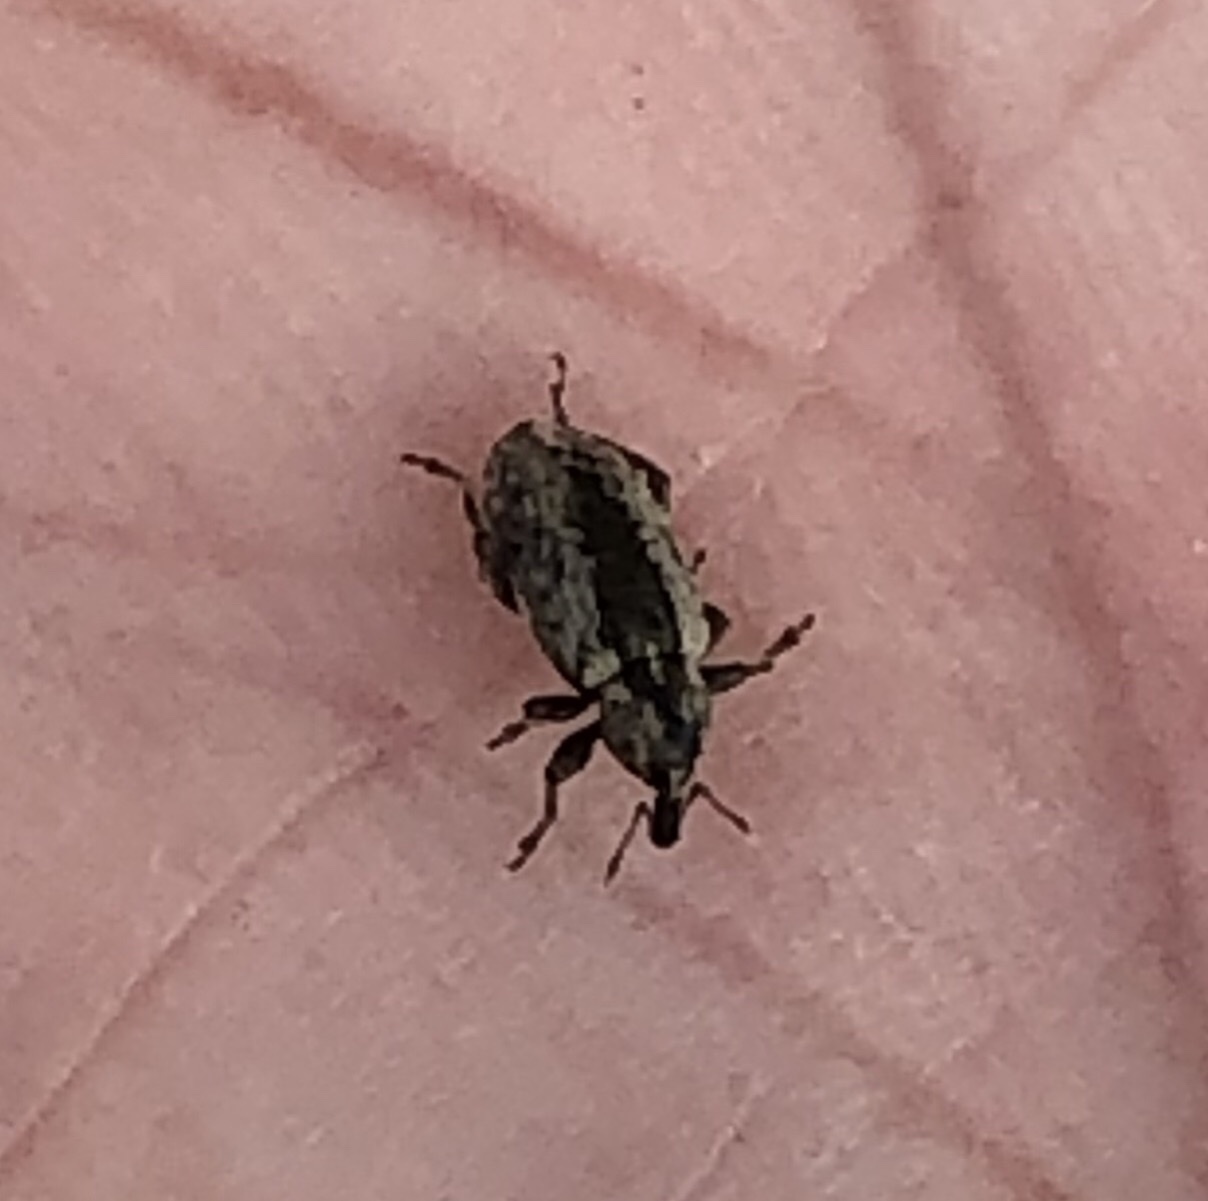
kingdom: Animalia
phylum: Arthropoda
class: Insecta
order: Coleoptera
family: Curculionidae
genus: Hypera
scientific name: Hypera postica
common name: Weevil
